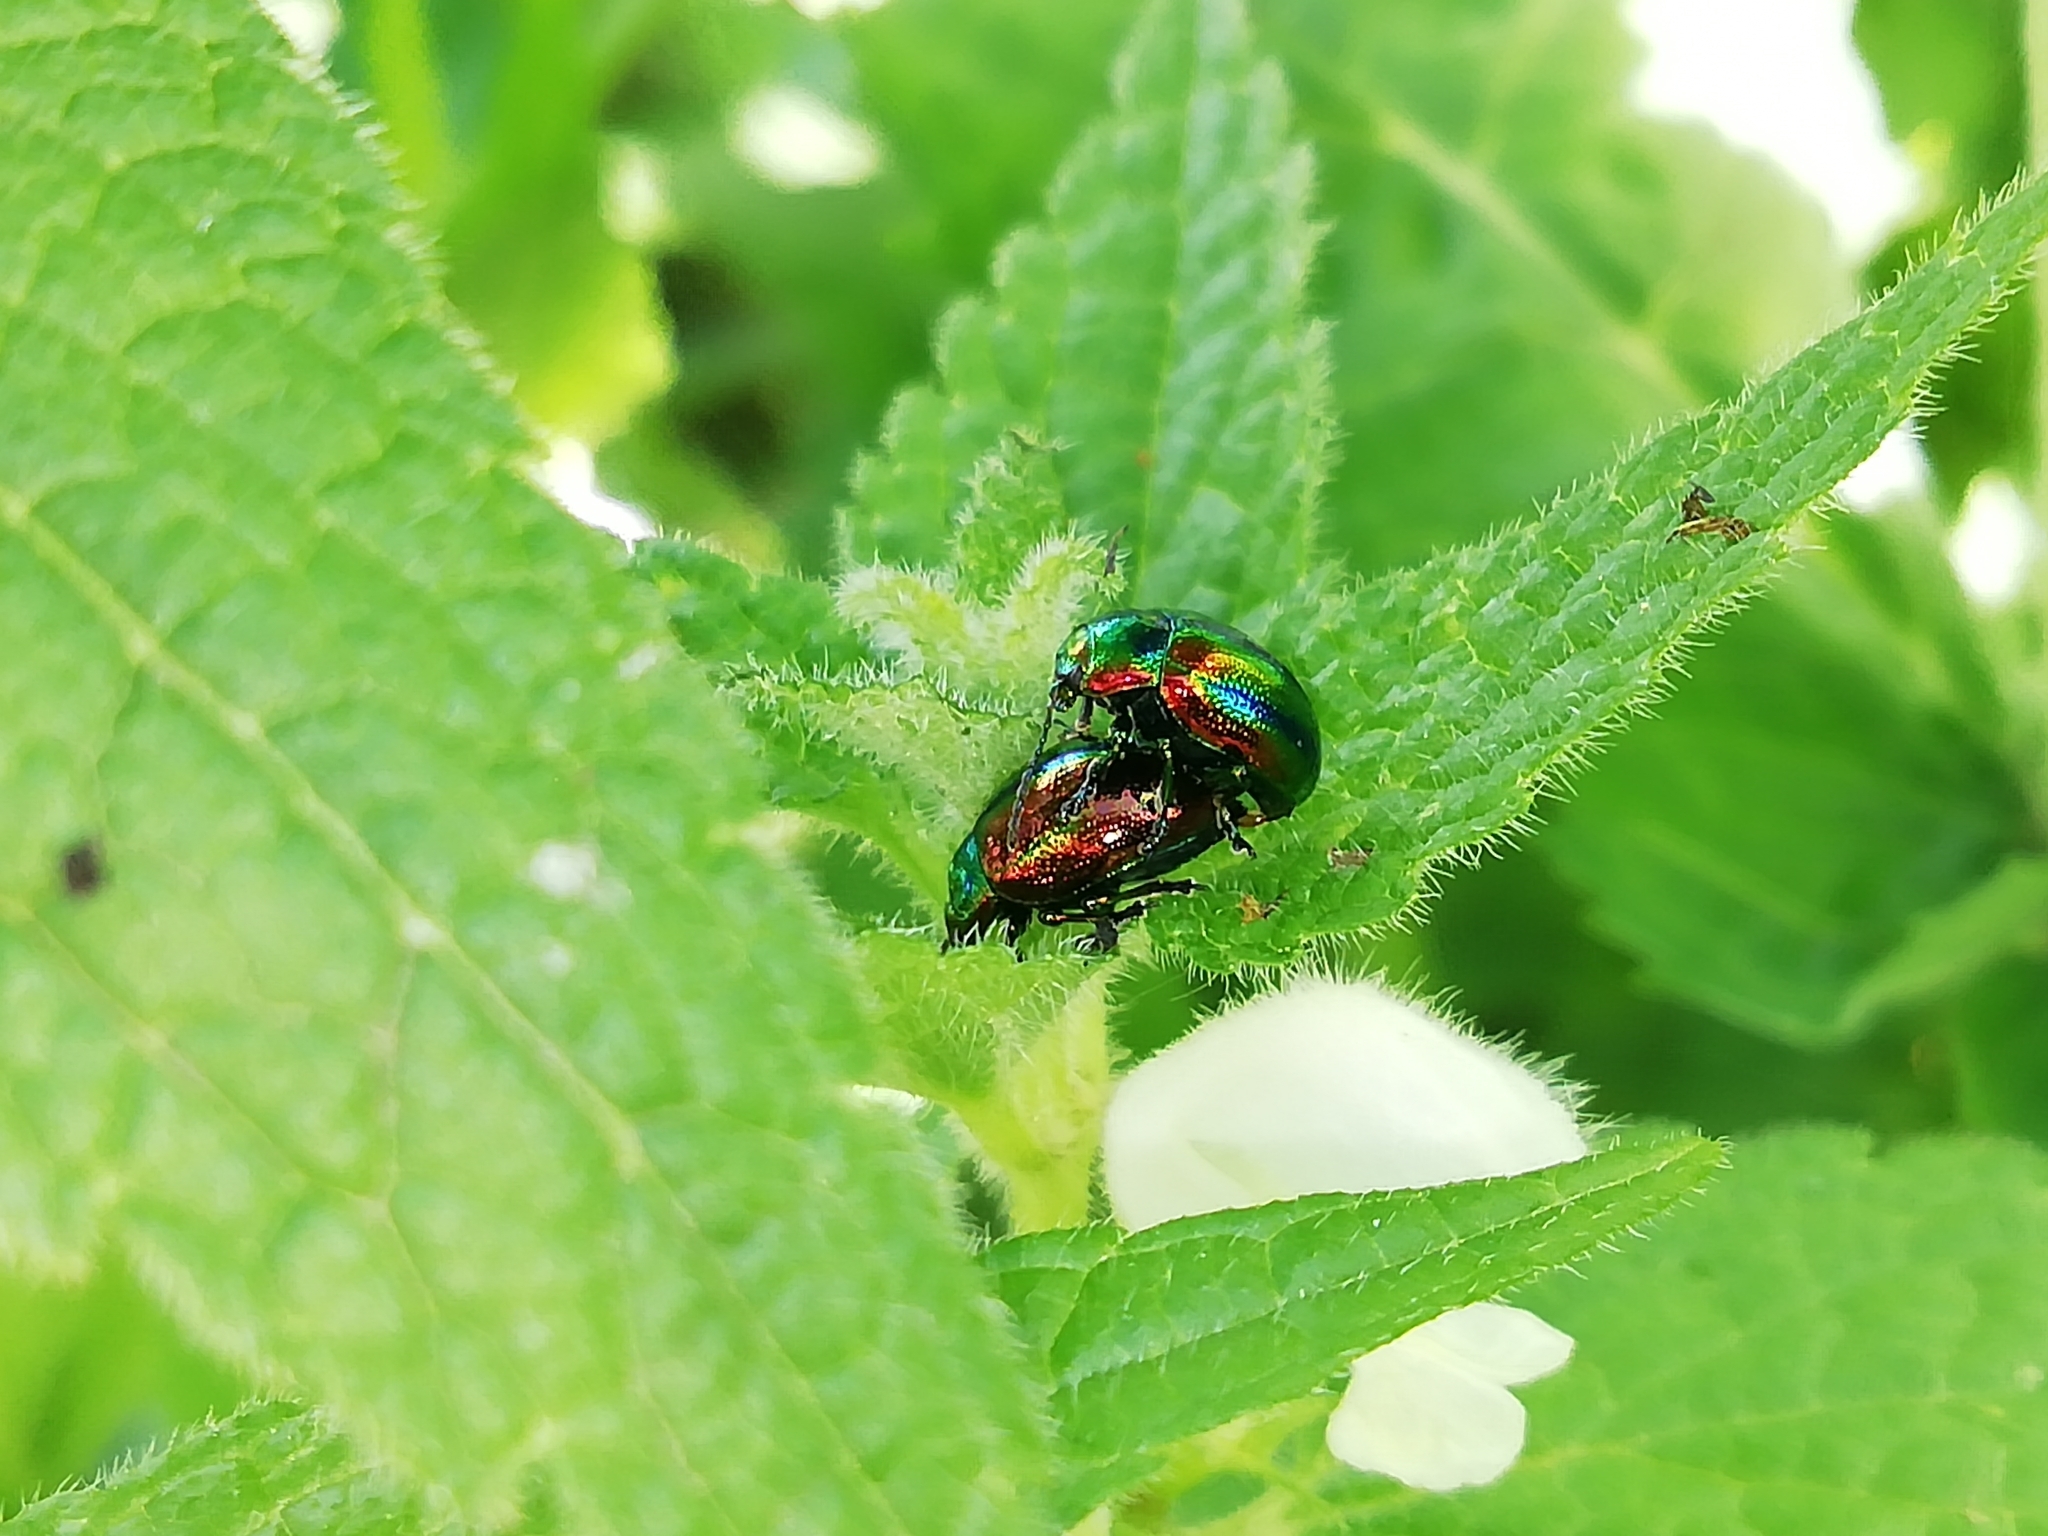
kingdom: Animalia
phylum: Arthropoda
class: Insecta
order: Coleoptera
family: Chrysomelidae
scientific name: Chrysomelidae
